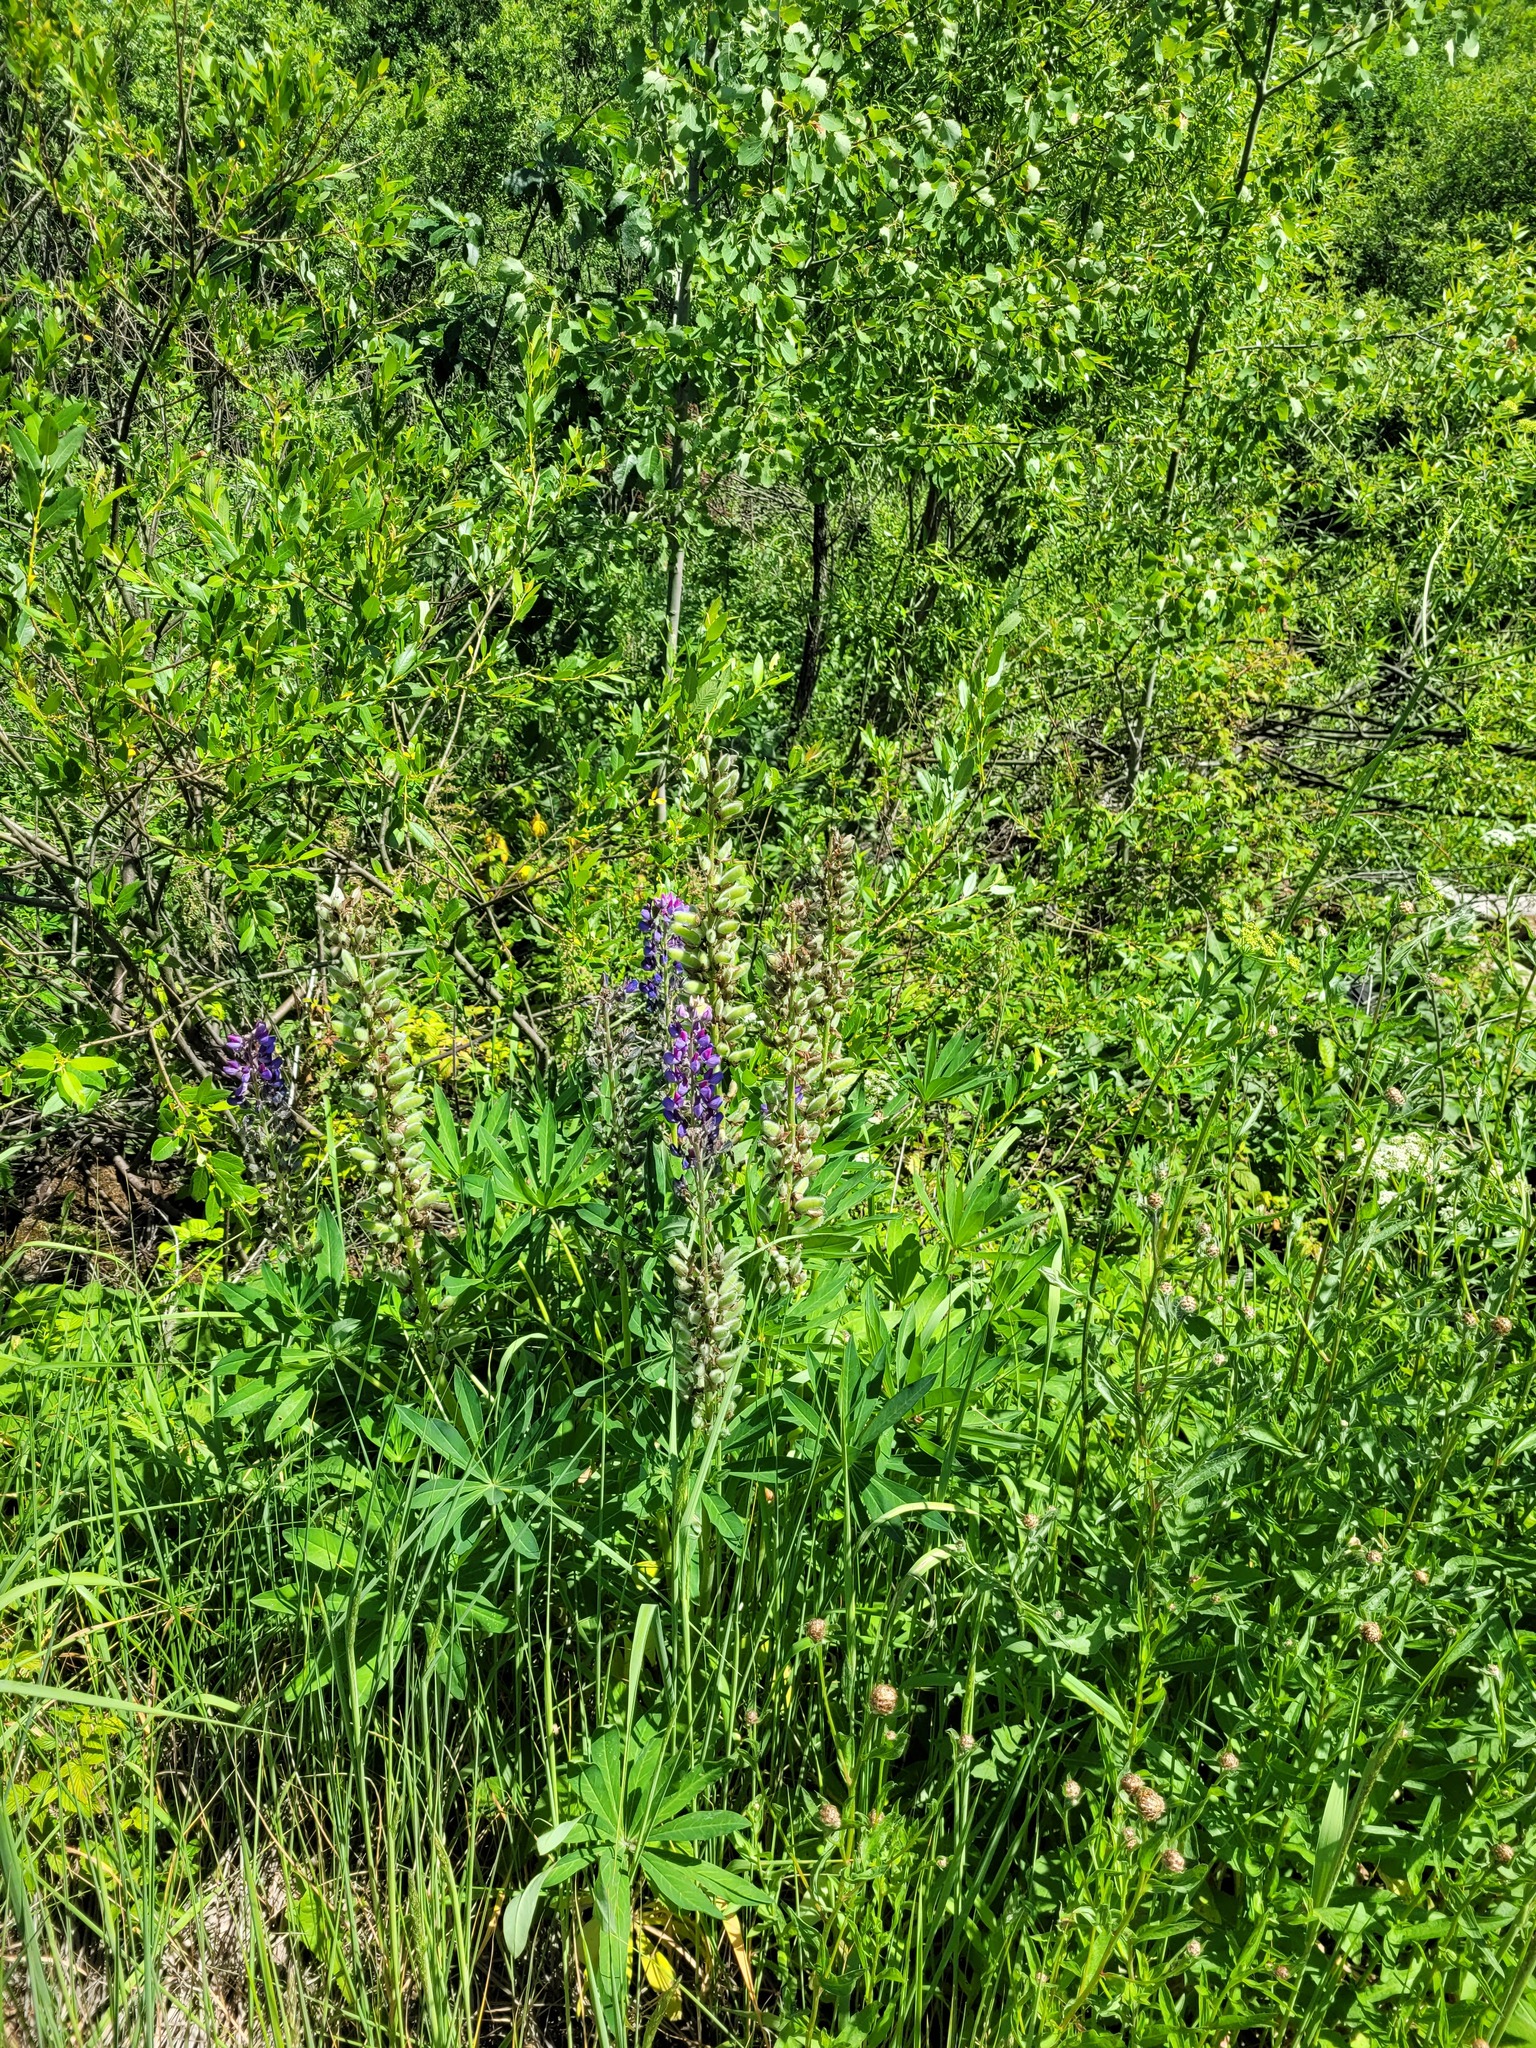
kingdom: Plantae
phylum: Tracheophyta
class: Magnoliopsida
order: Fabales
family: Fabaceae
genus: Lupinus
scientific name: Lupinus polyphyllus
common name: Garden lupin
